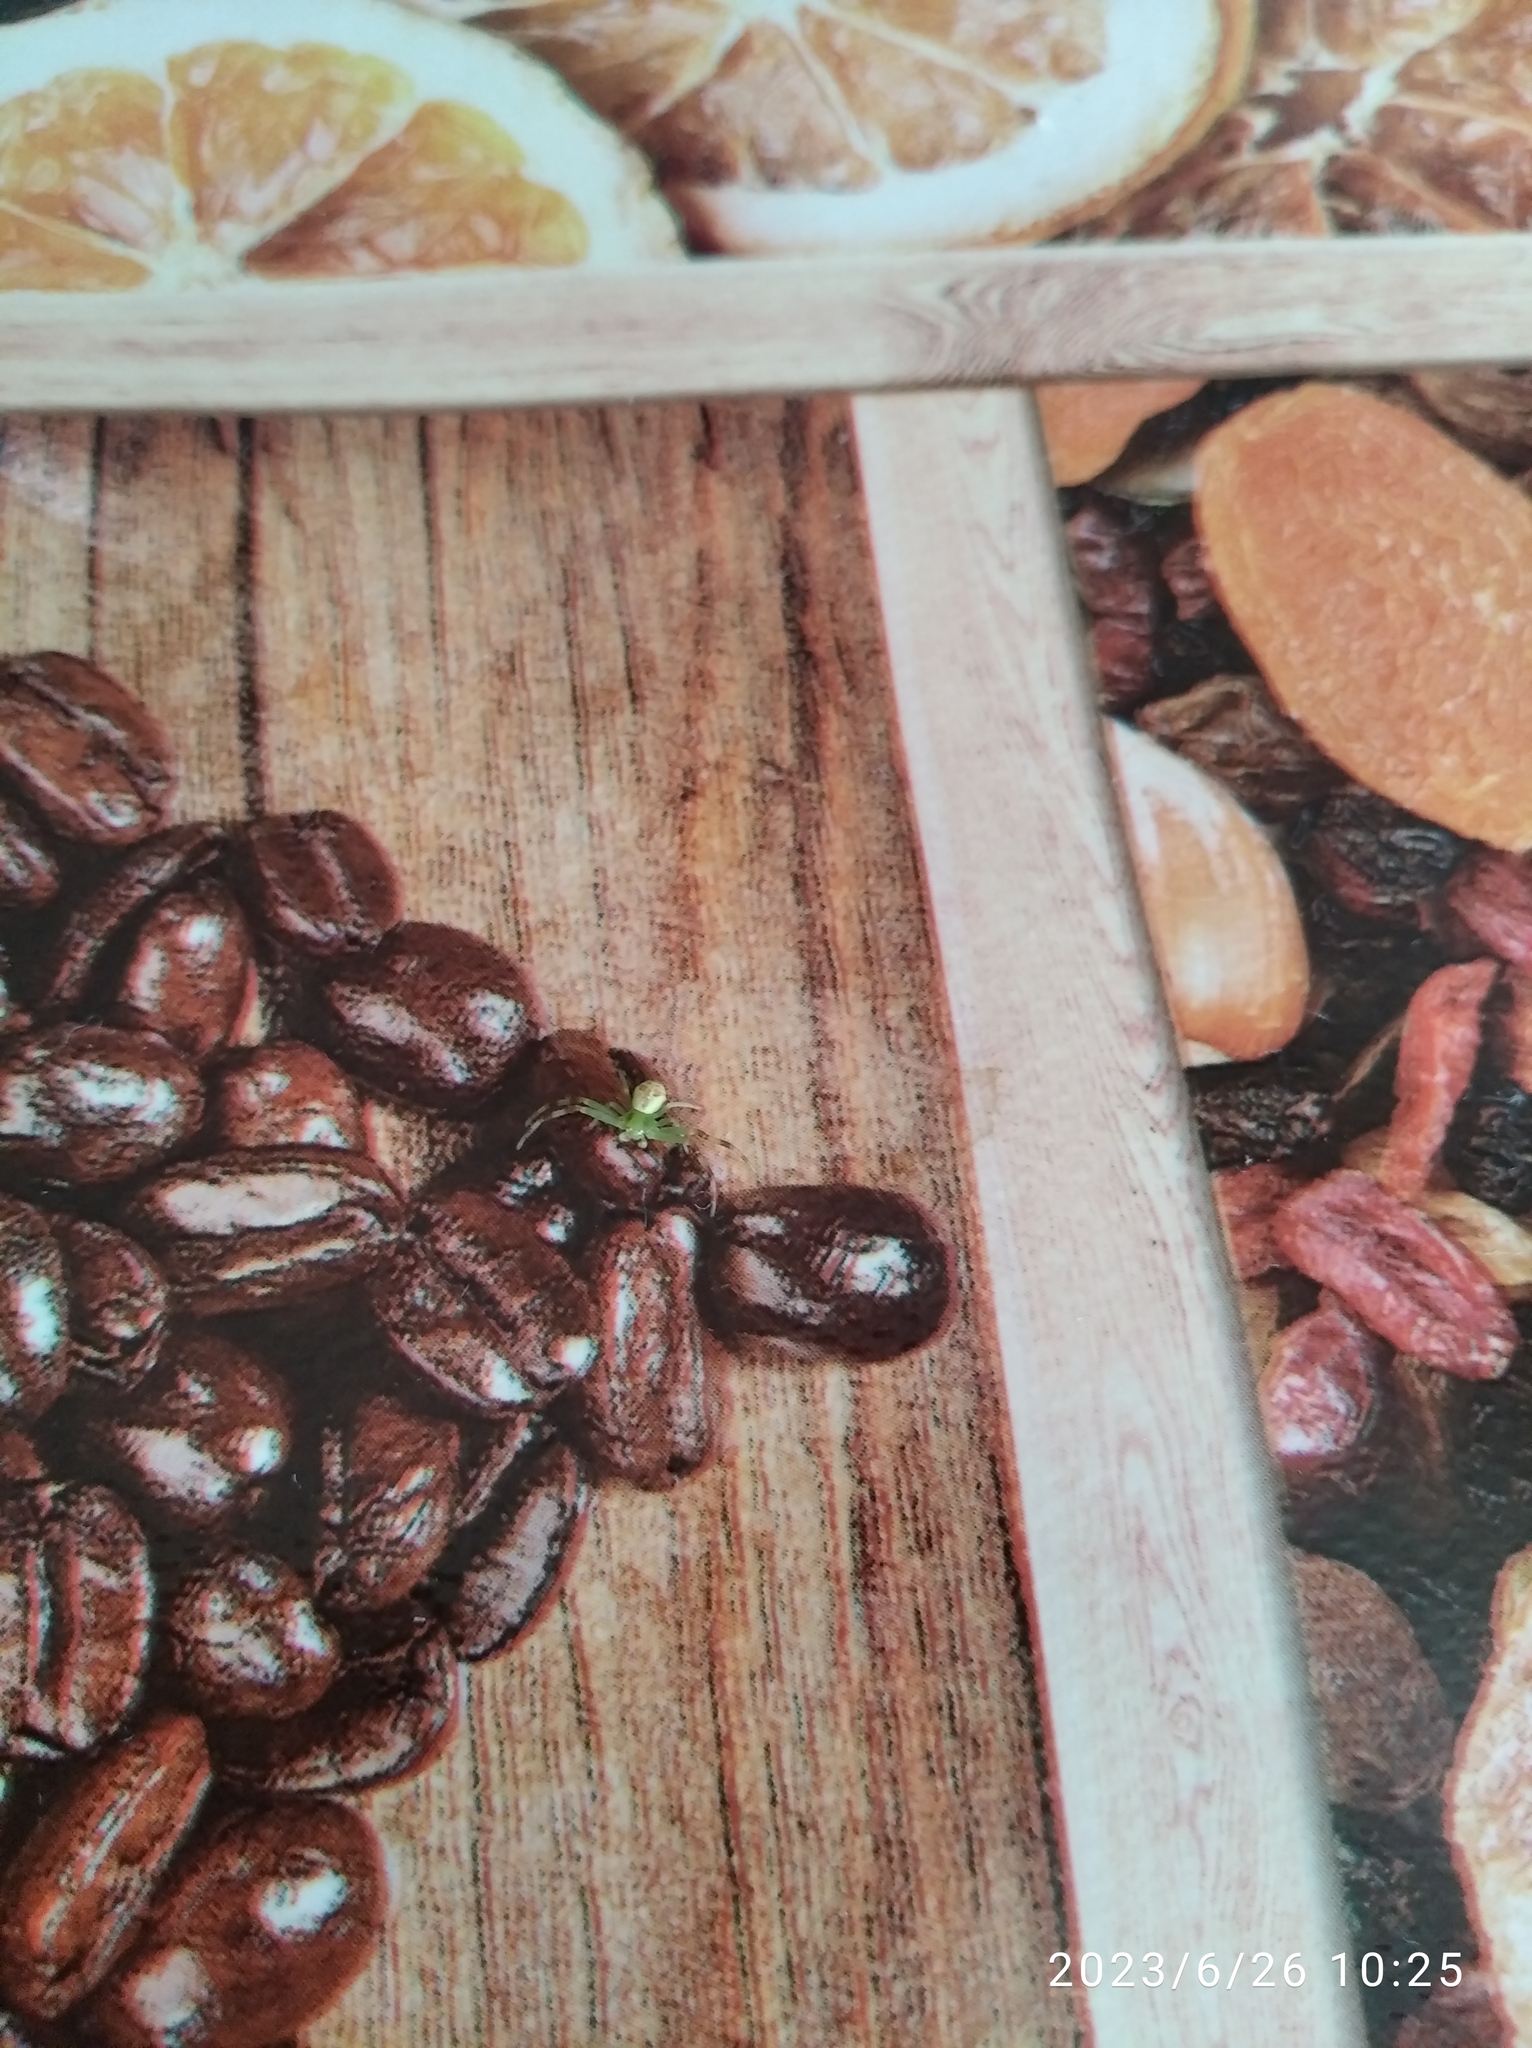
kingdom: Animalia
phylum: Arthropoda
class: Arachnida
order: Araneae
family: Thomisidae
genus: Misumena
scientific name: Misumena vatia
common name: Goldenrod crab spider
